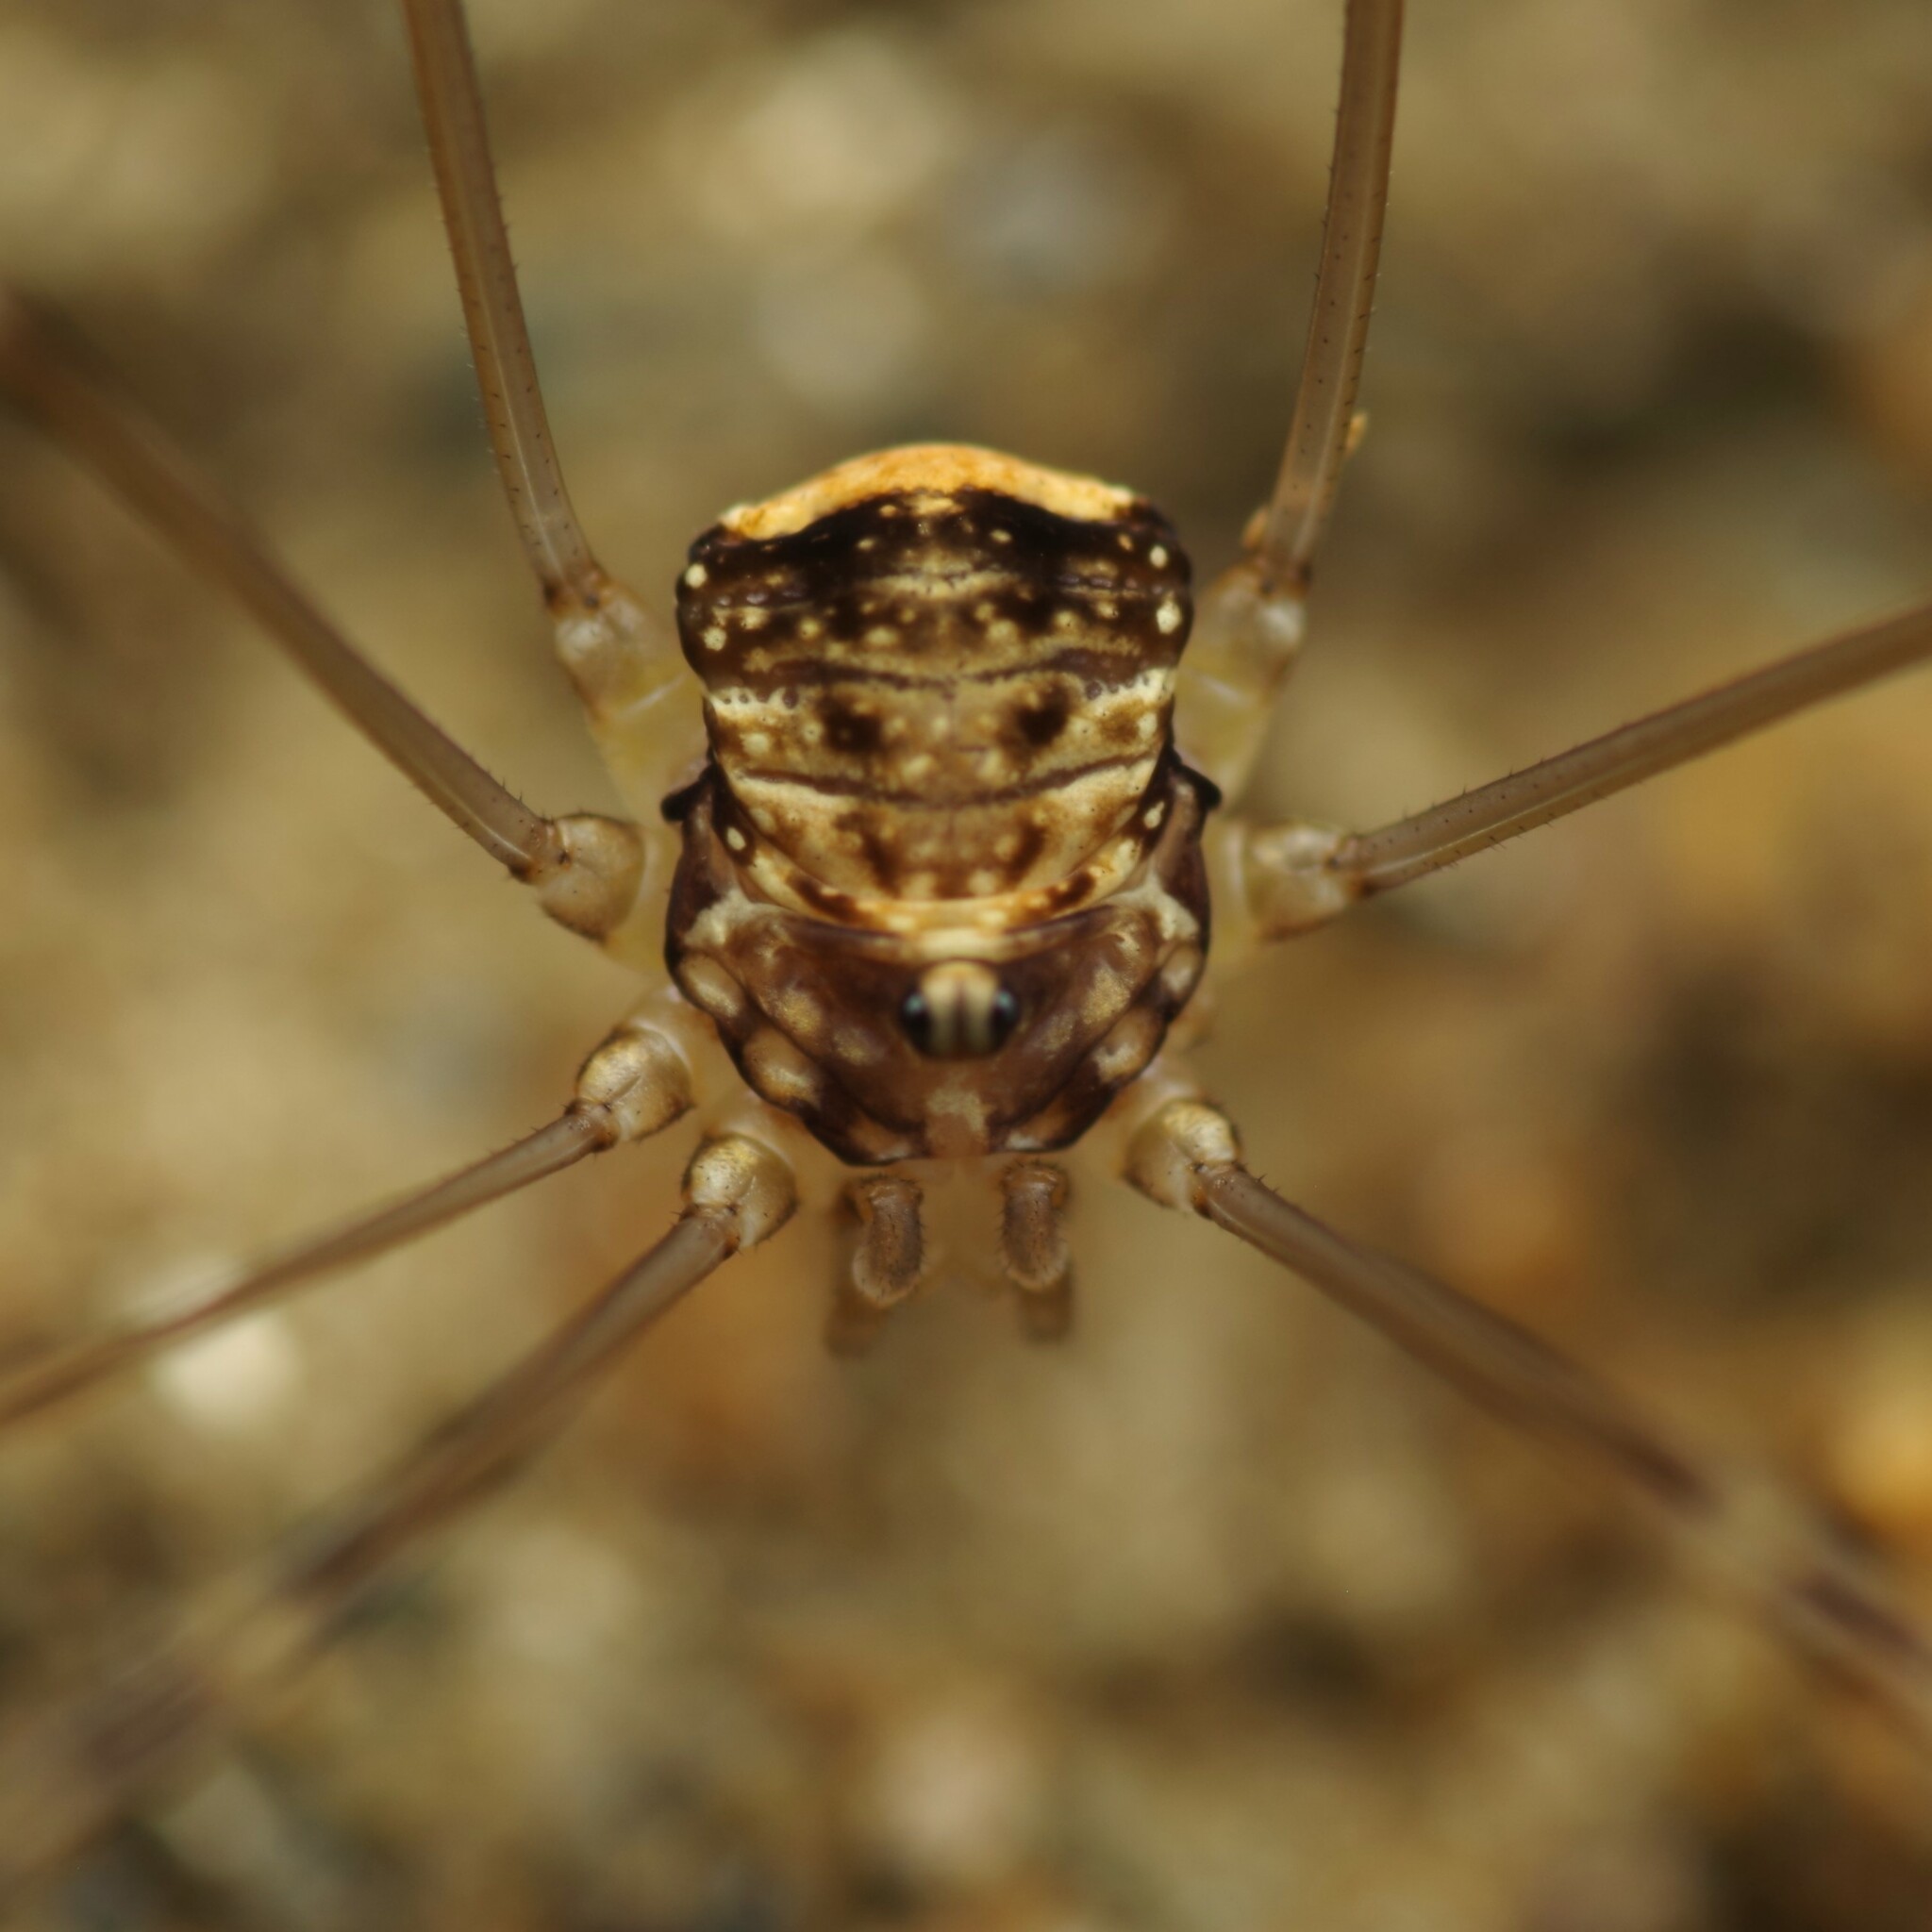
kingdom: Animalia
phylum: Arthropoda
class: Arachnida
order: Opiliones
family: Sclerosomatidae
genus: Leiobunum
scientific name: Leiobunum blackwalli
